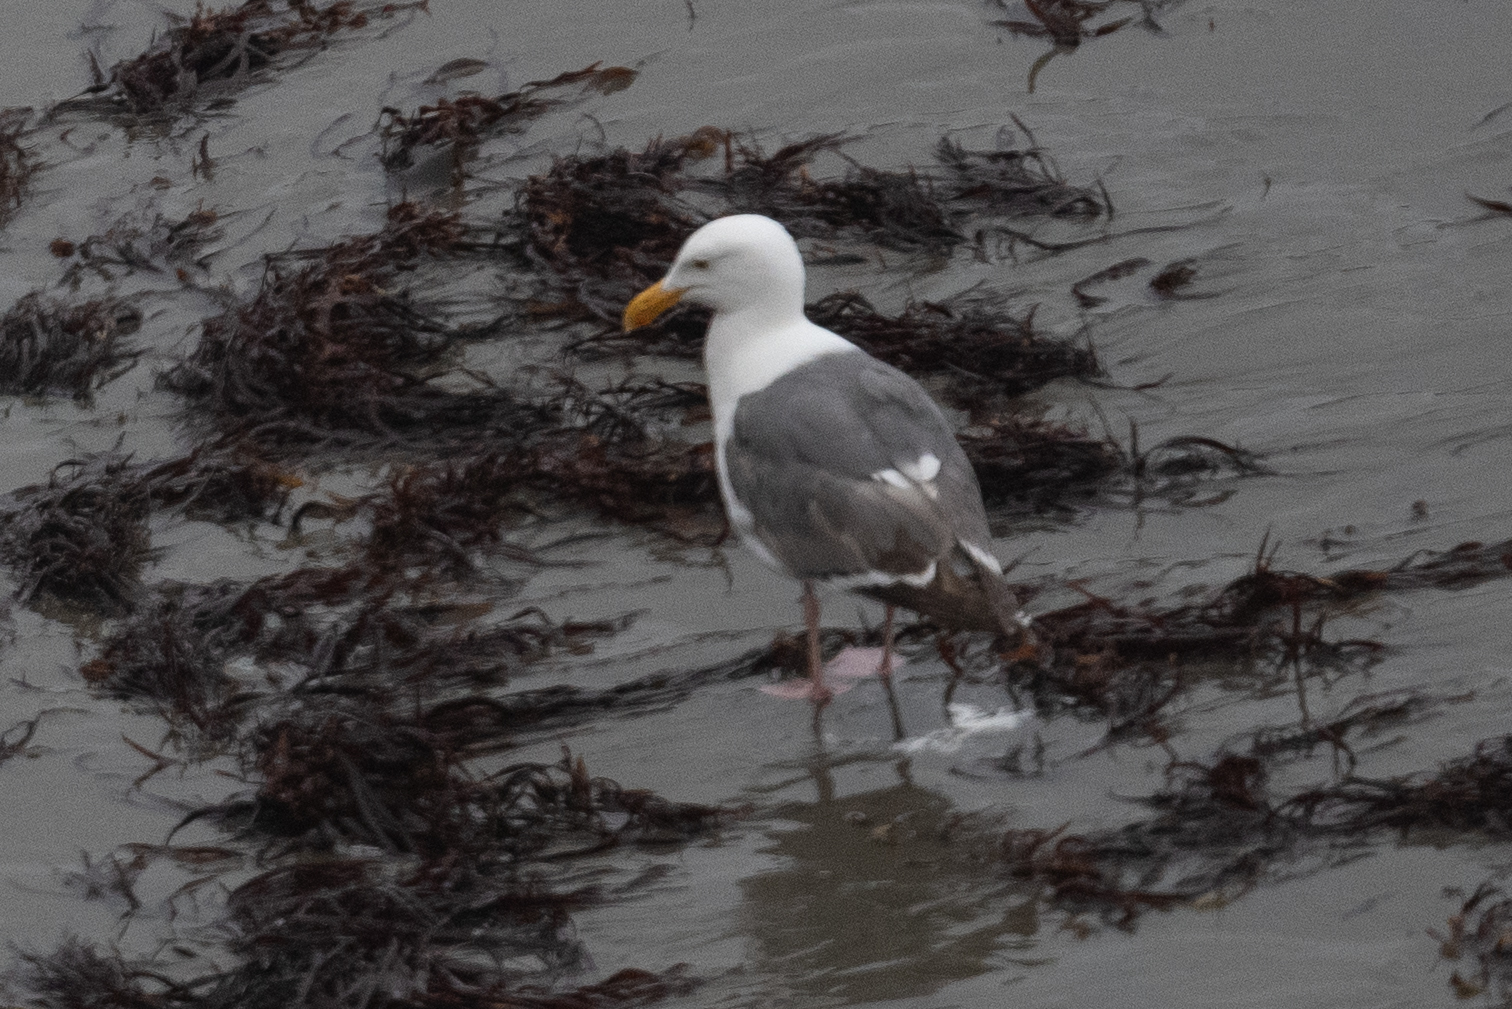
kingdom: Animalia
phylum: Chordata
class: Aves
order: Charadriiformes
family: Laridae
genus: Larus
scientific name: Larus occidentalis
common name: Western gull
